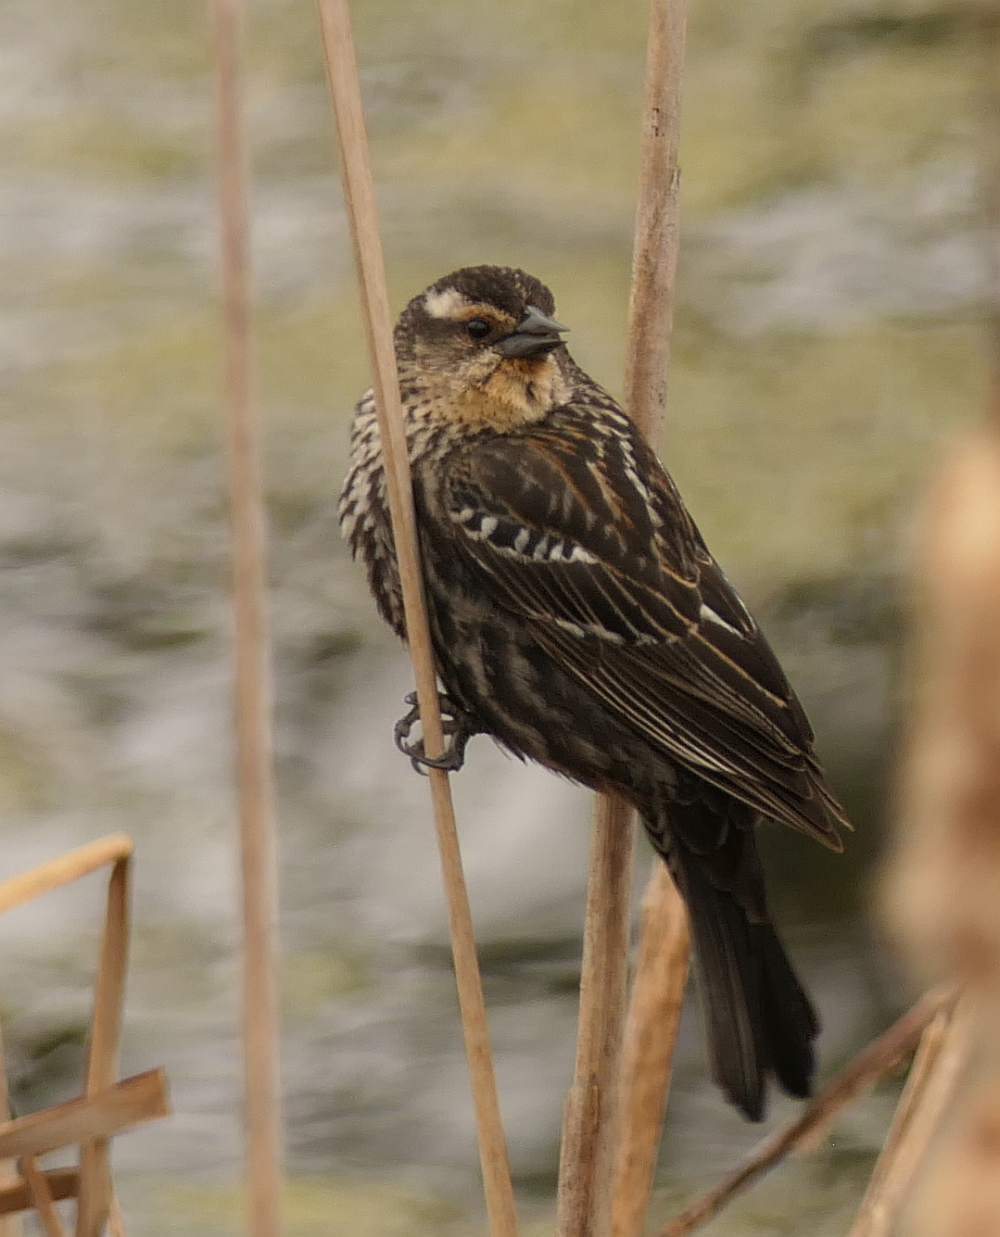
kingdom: Animalia
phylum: Chordata
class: Aves
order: Passeriformes
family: Icteridae
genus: Agelaius
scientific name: Agelaius phoeniceus
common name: Red-winged blackbird
